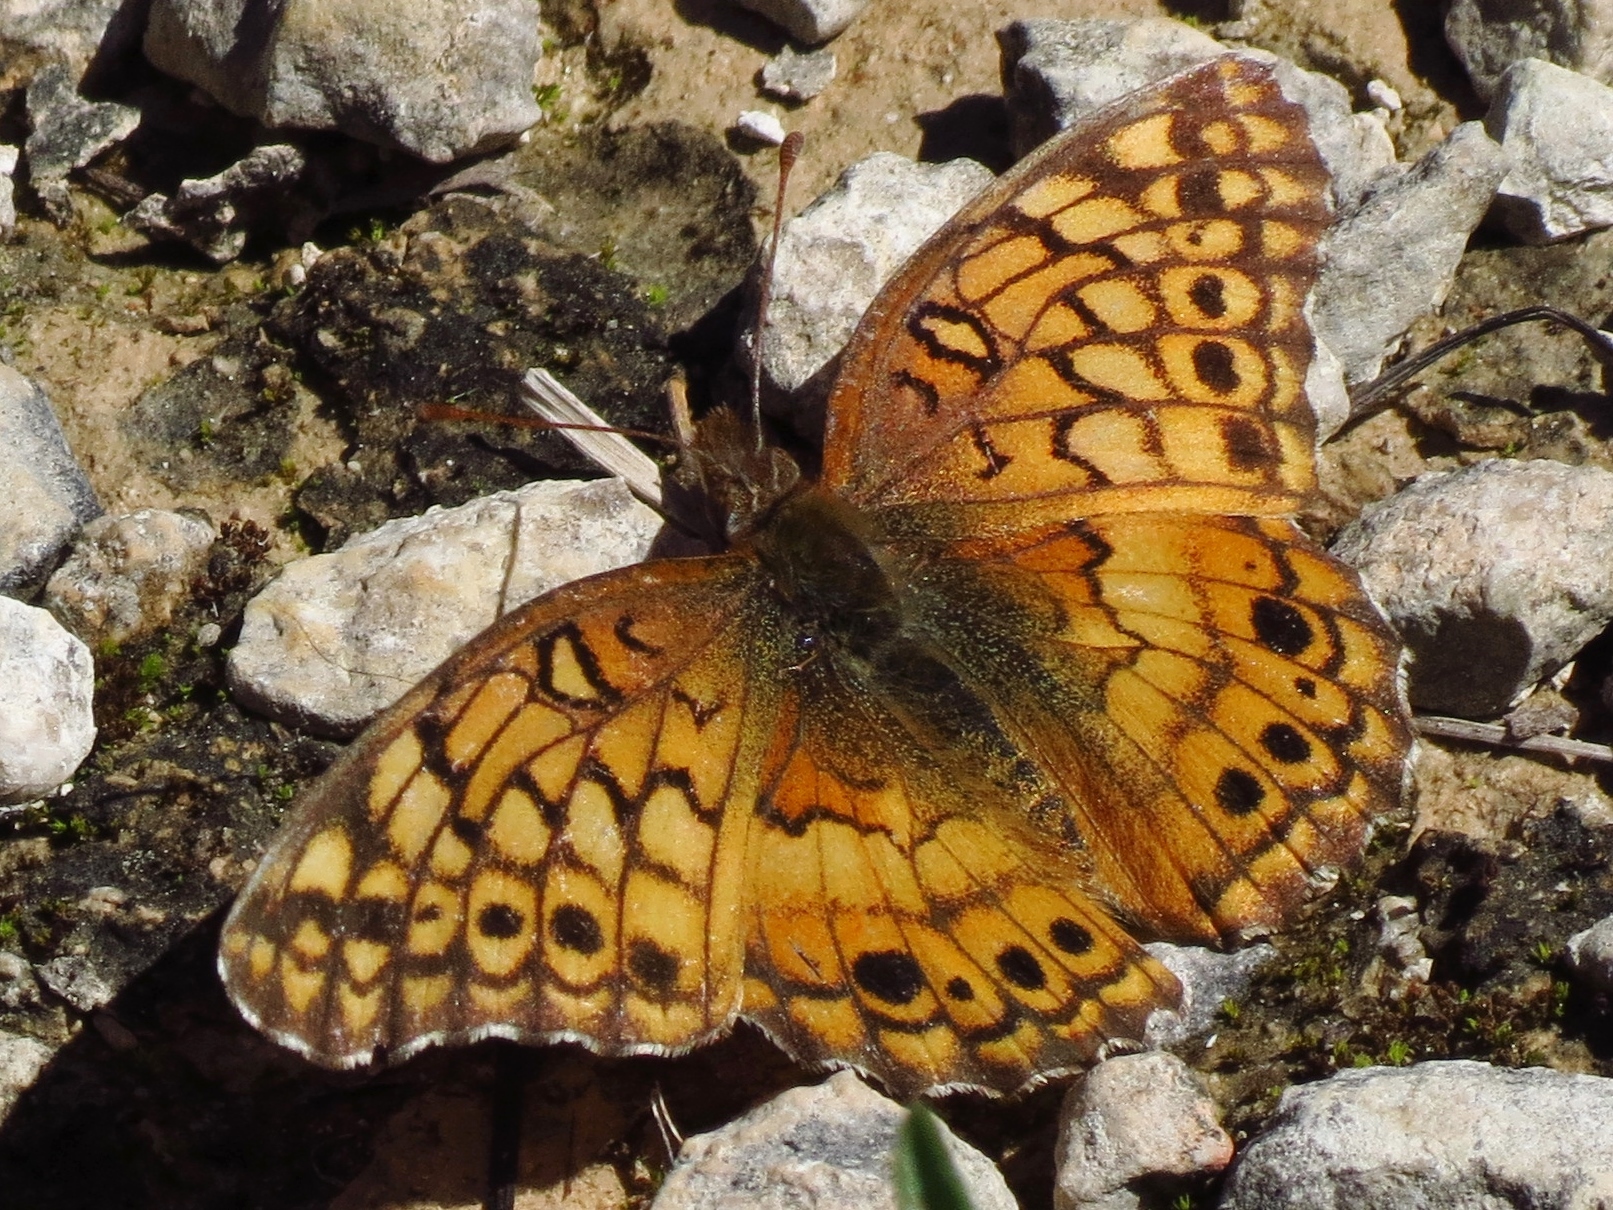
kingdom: Animalia
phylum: Arthropoda
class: Insecta
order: Lepidoptera
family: Nymphalidae
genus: Euptoieta
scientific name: Euptoieta claudia
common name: Variegated fritillary
